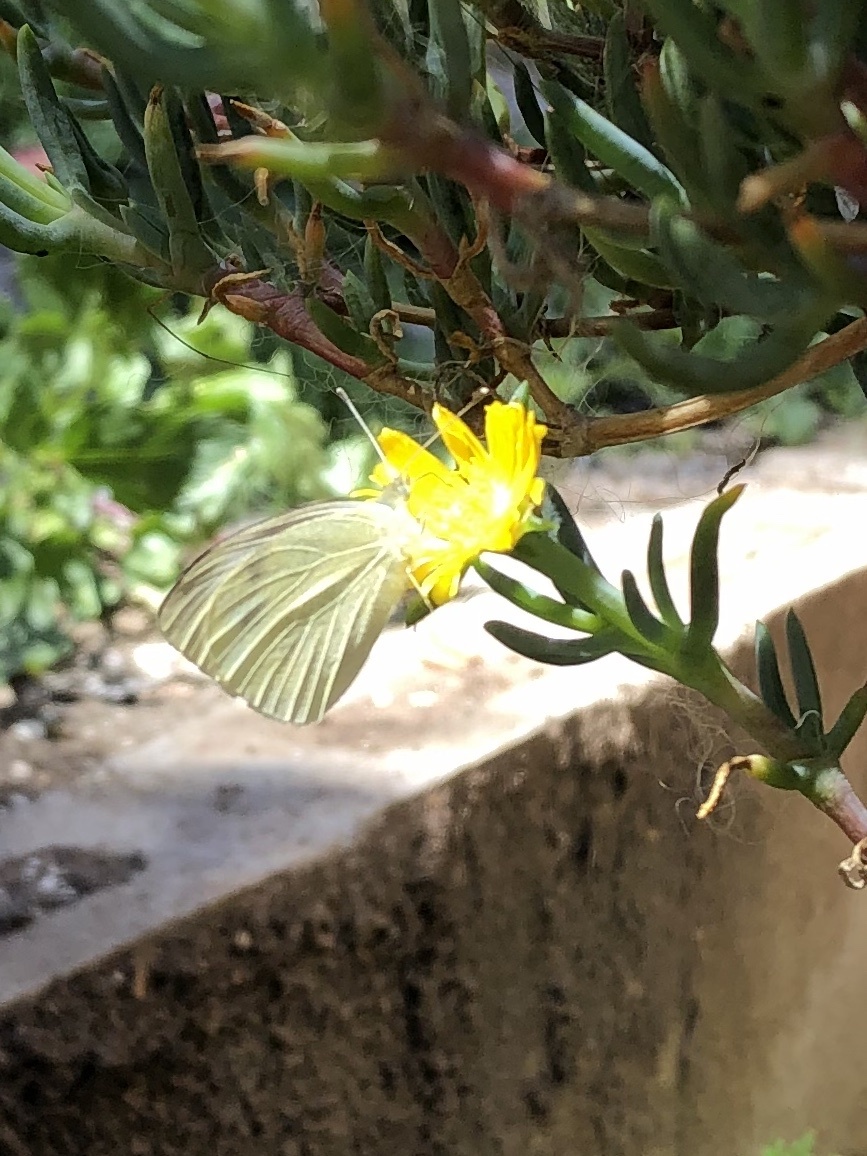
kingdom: Animalia
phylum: Arthropoda
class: Insecta
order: Lepidoptera
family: Pieridae
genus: Pieris
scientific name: Pieris rapae
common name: Small white
